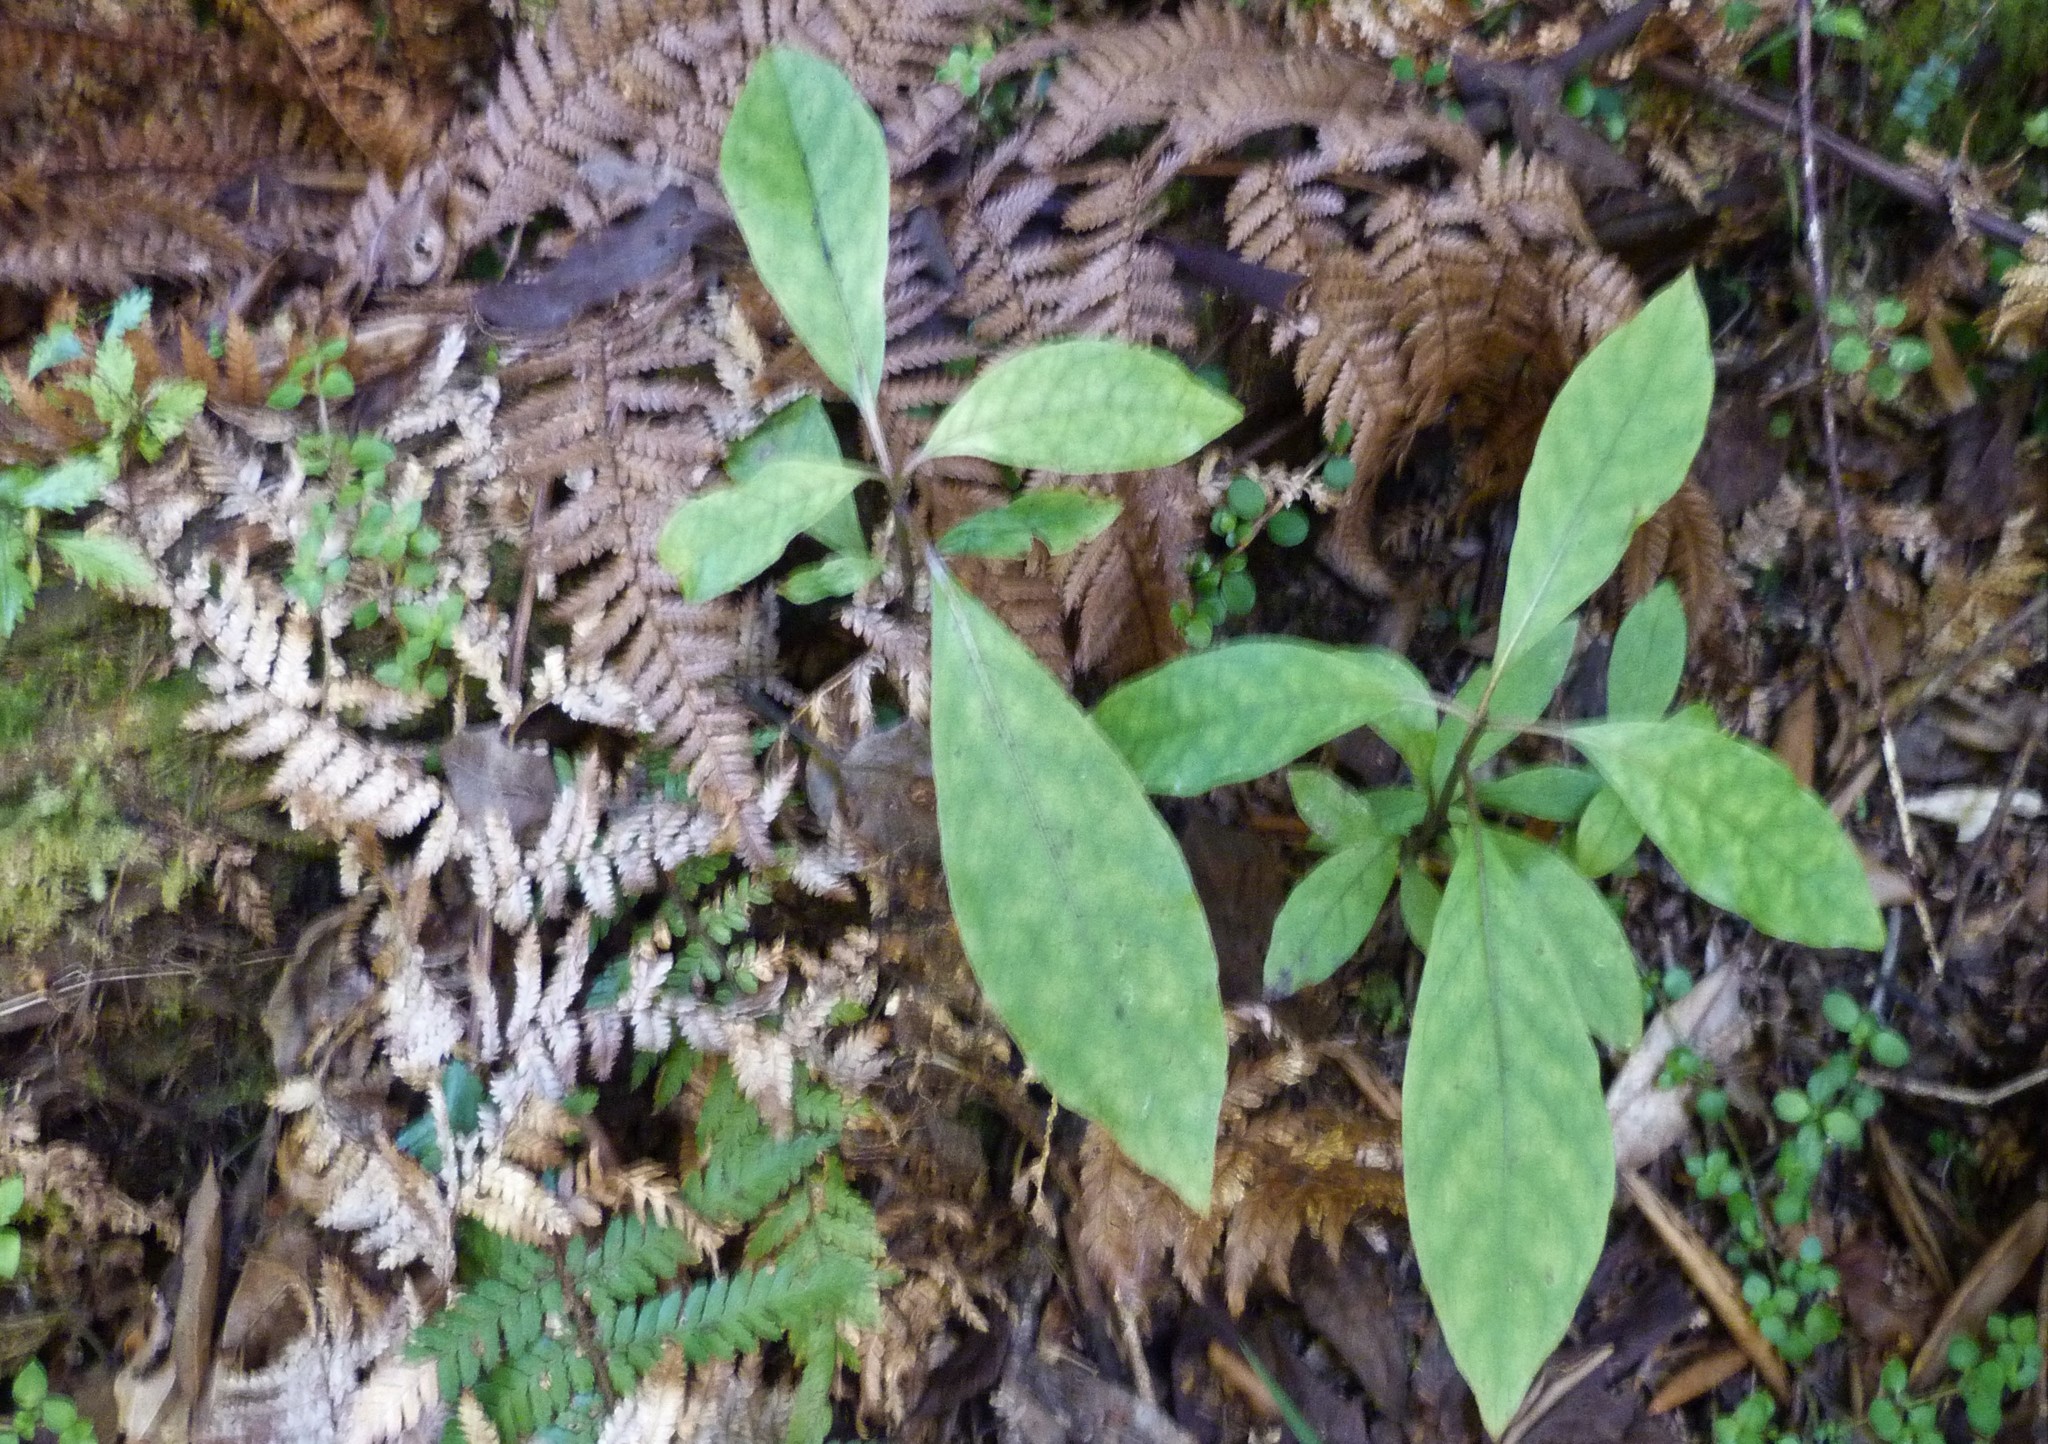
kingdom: Plantae
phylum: Tracheophyta
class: Magnoliopsida
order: Gentianales
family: Rubiaceae
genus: Coprosma
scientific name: Coprosma autumnalis
